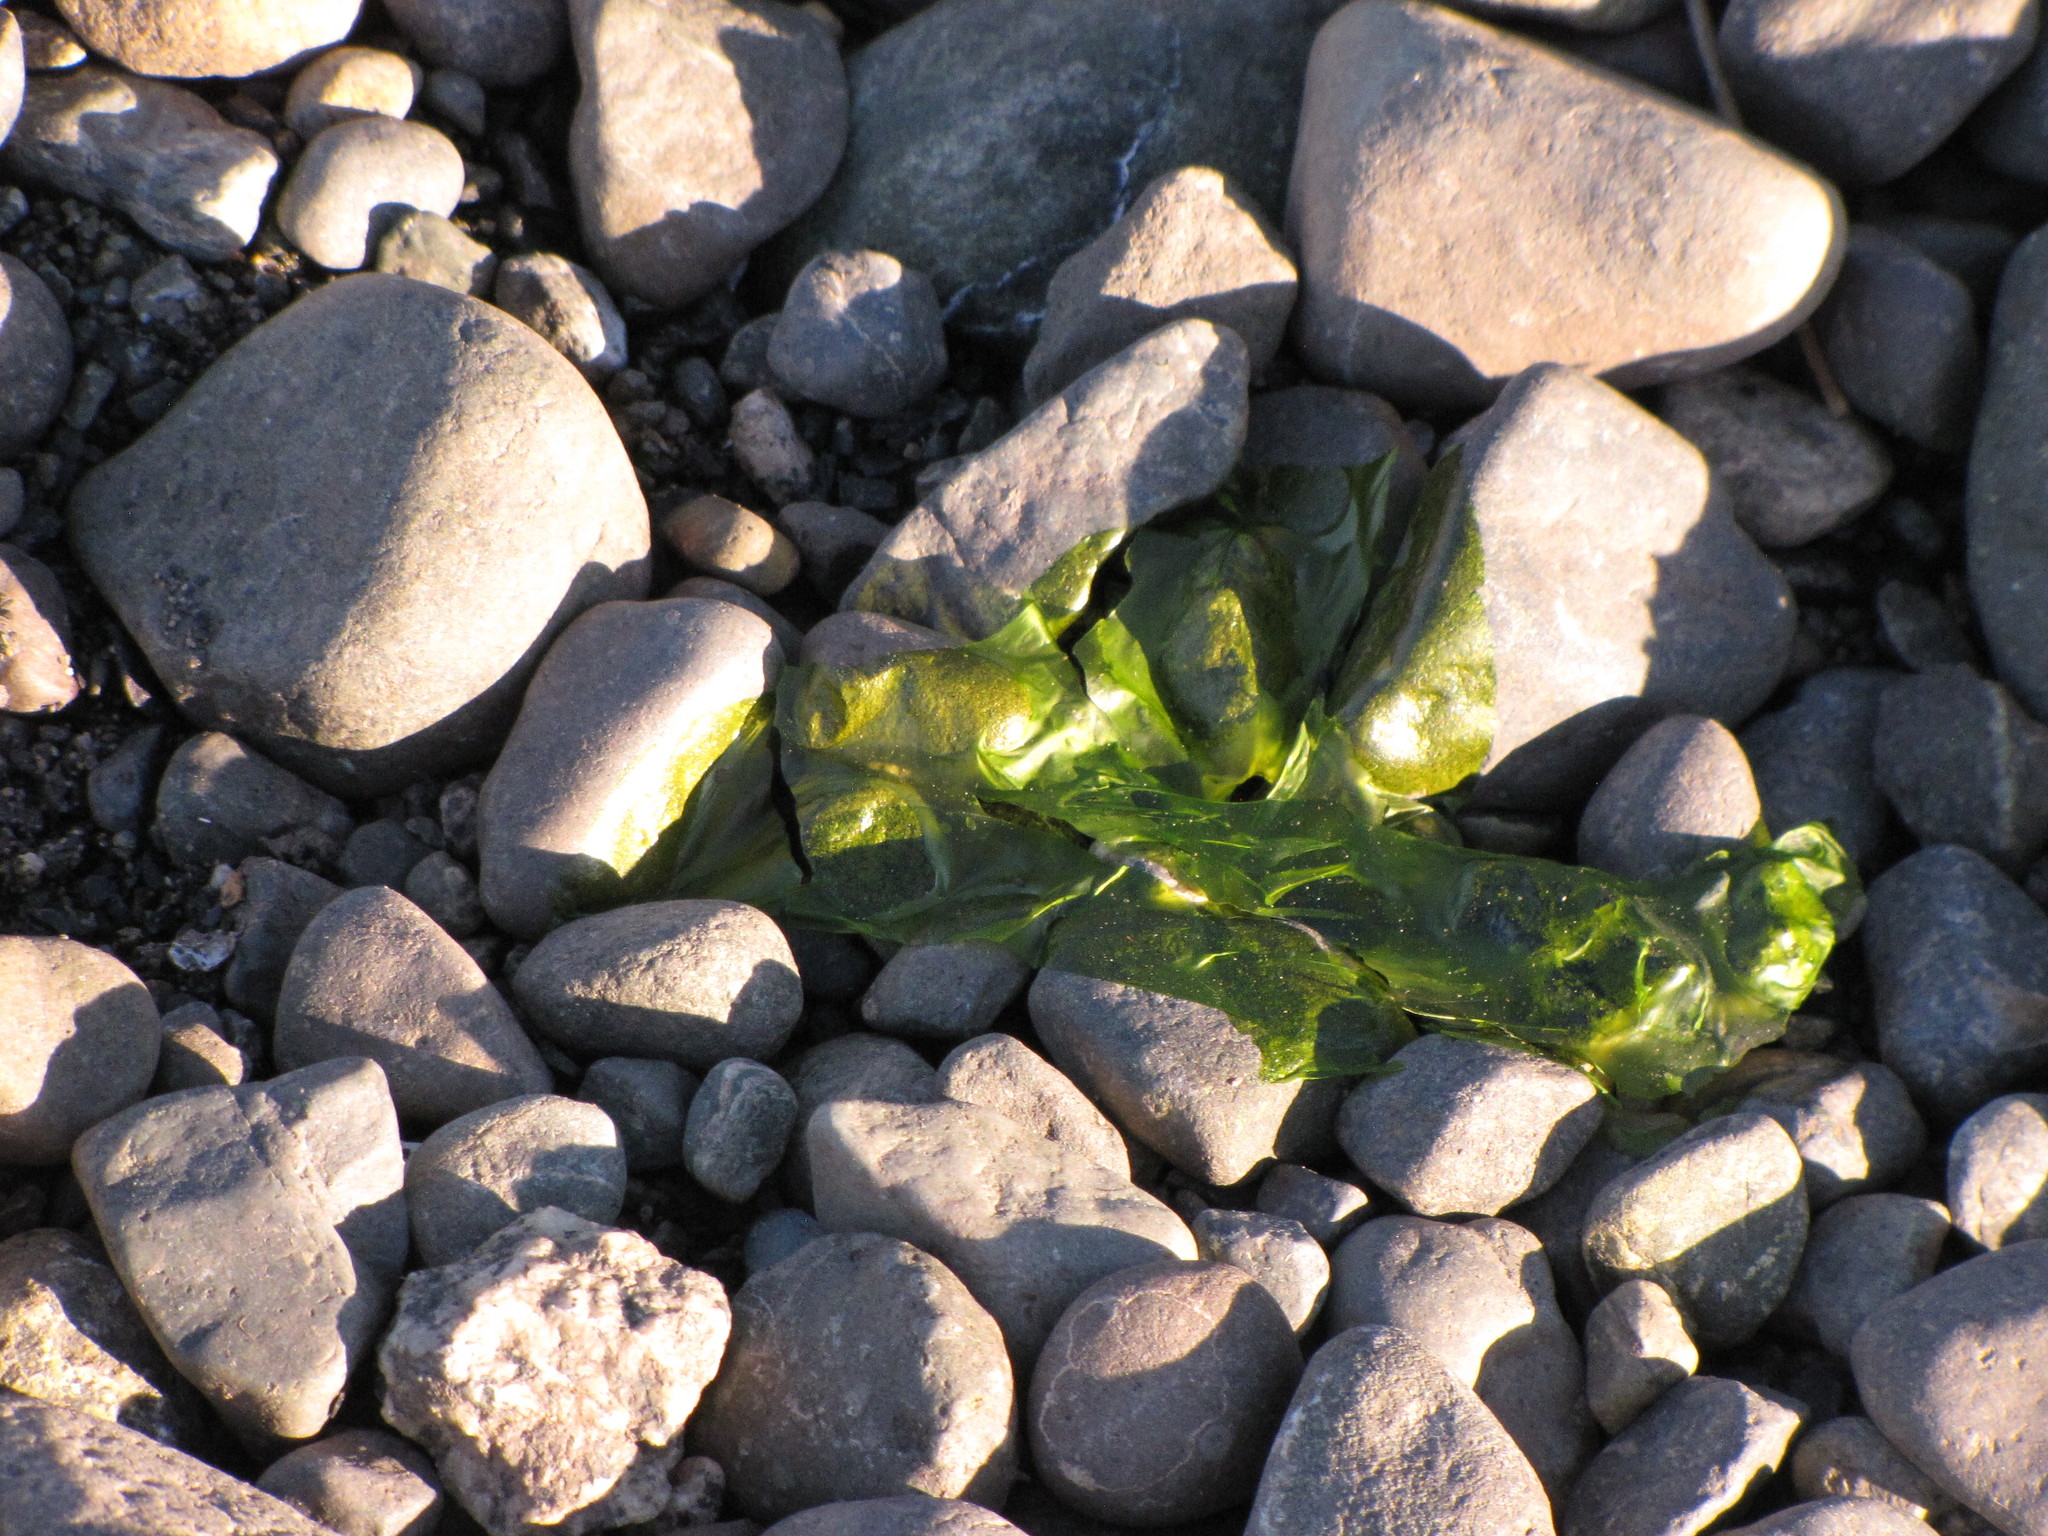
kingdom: Plantae
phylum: Chlorophyta
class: Ulvophyceae
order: Ulvales
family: Ulvaceae
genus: Ulva
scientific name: Ulva lactuca
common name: Sea lettuce
